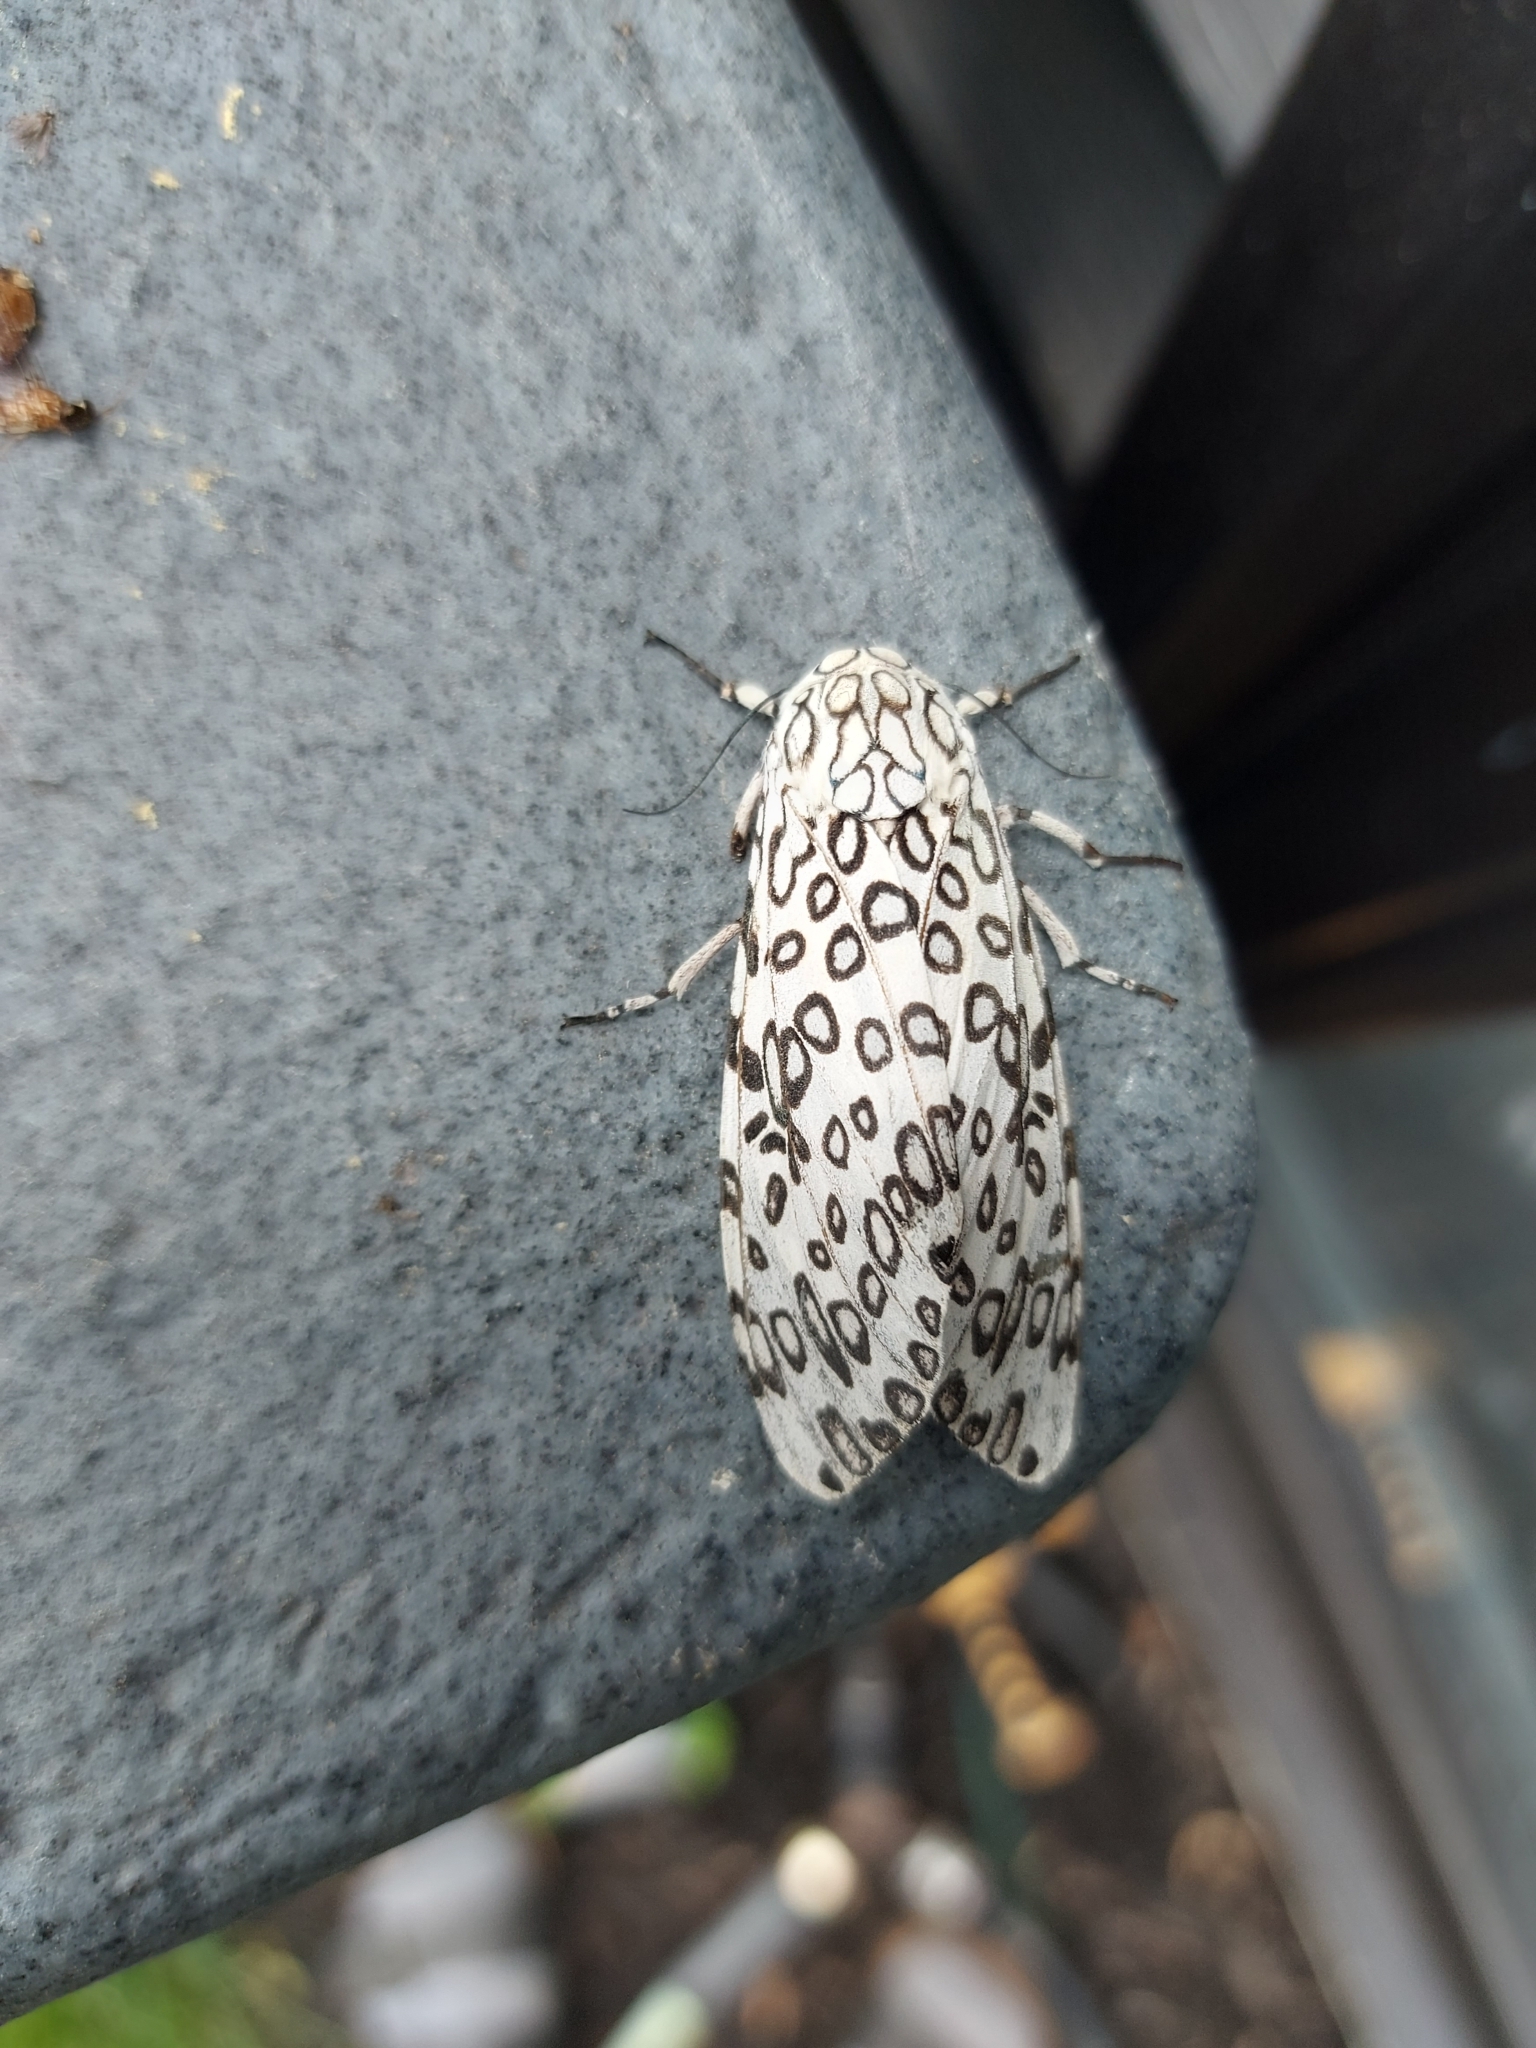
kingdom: Animalia
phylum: Arthropoda
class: Insecta
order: Lepidoptera
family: Erebidae
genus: Hypercompe
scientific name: Hypercompe scribonia
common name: Giant leopard moth
